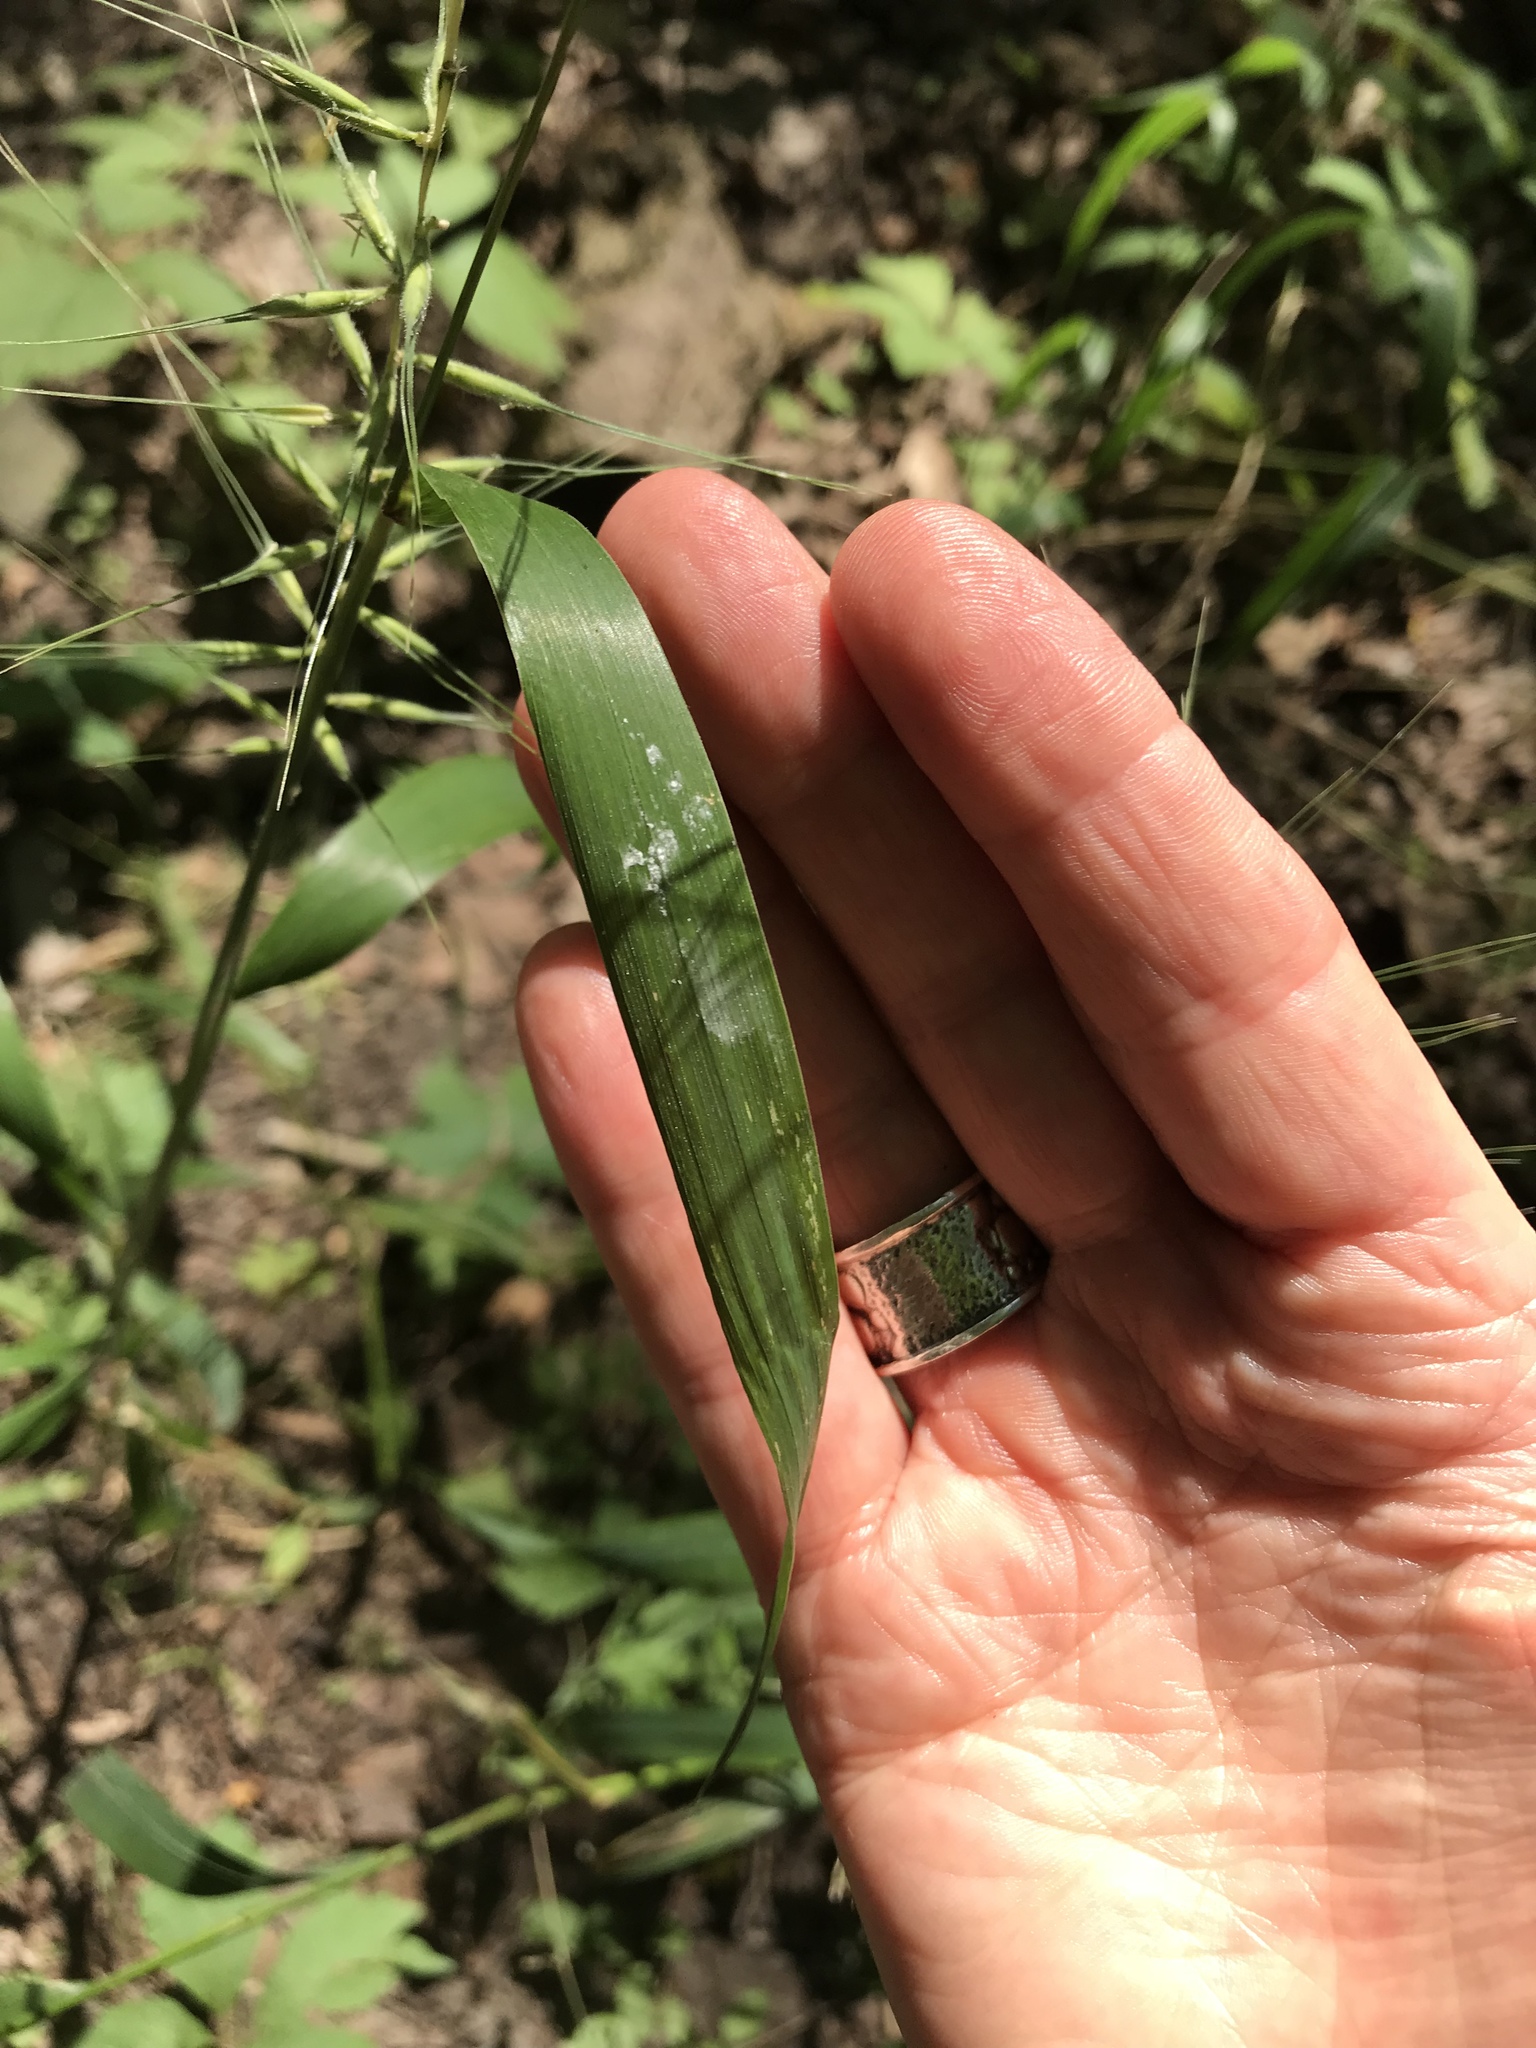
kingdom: Plantae
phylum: Tracheophyta
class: Liliopsida
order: Poales
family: Poaceae
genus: Elymus
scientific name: Elymus hystrix
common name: Bottlebrush grass
